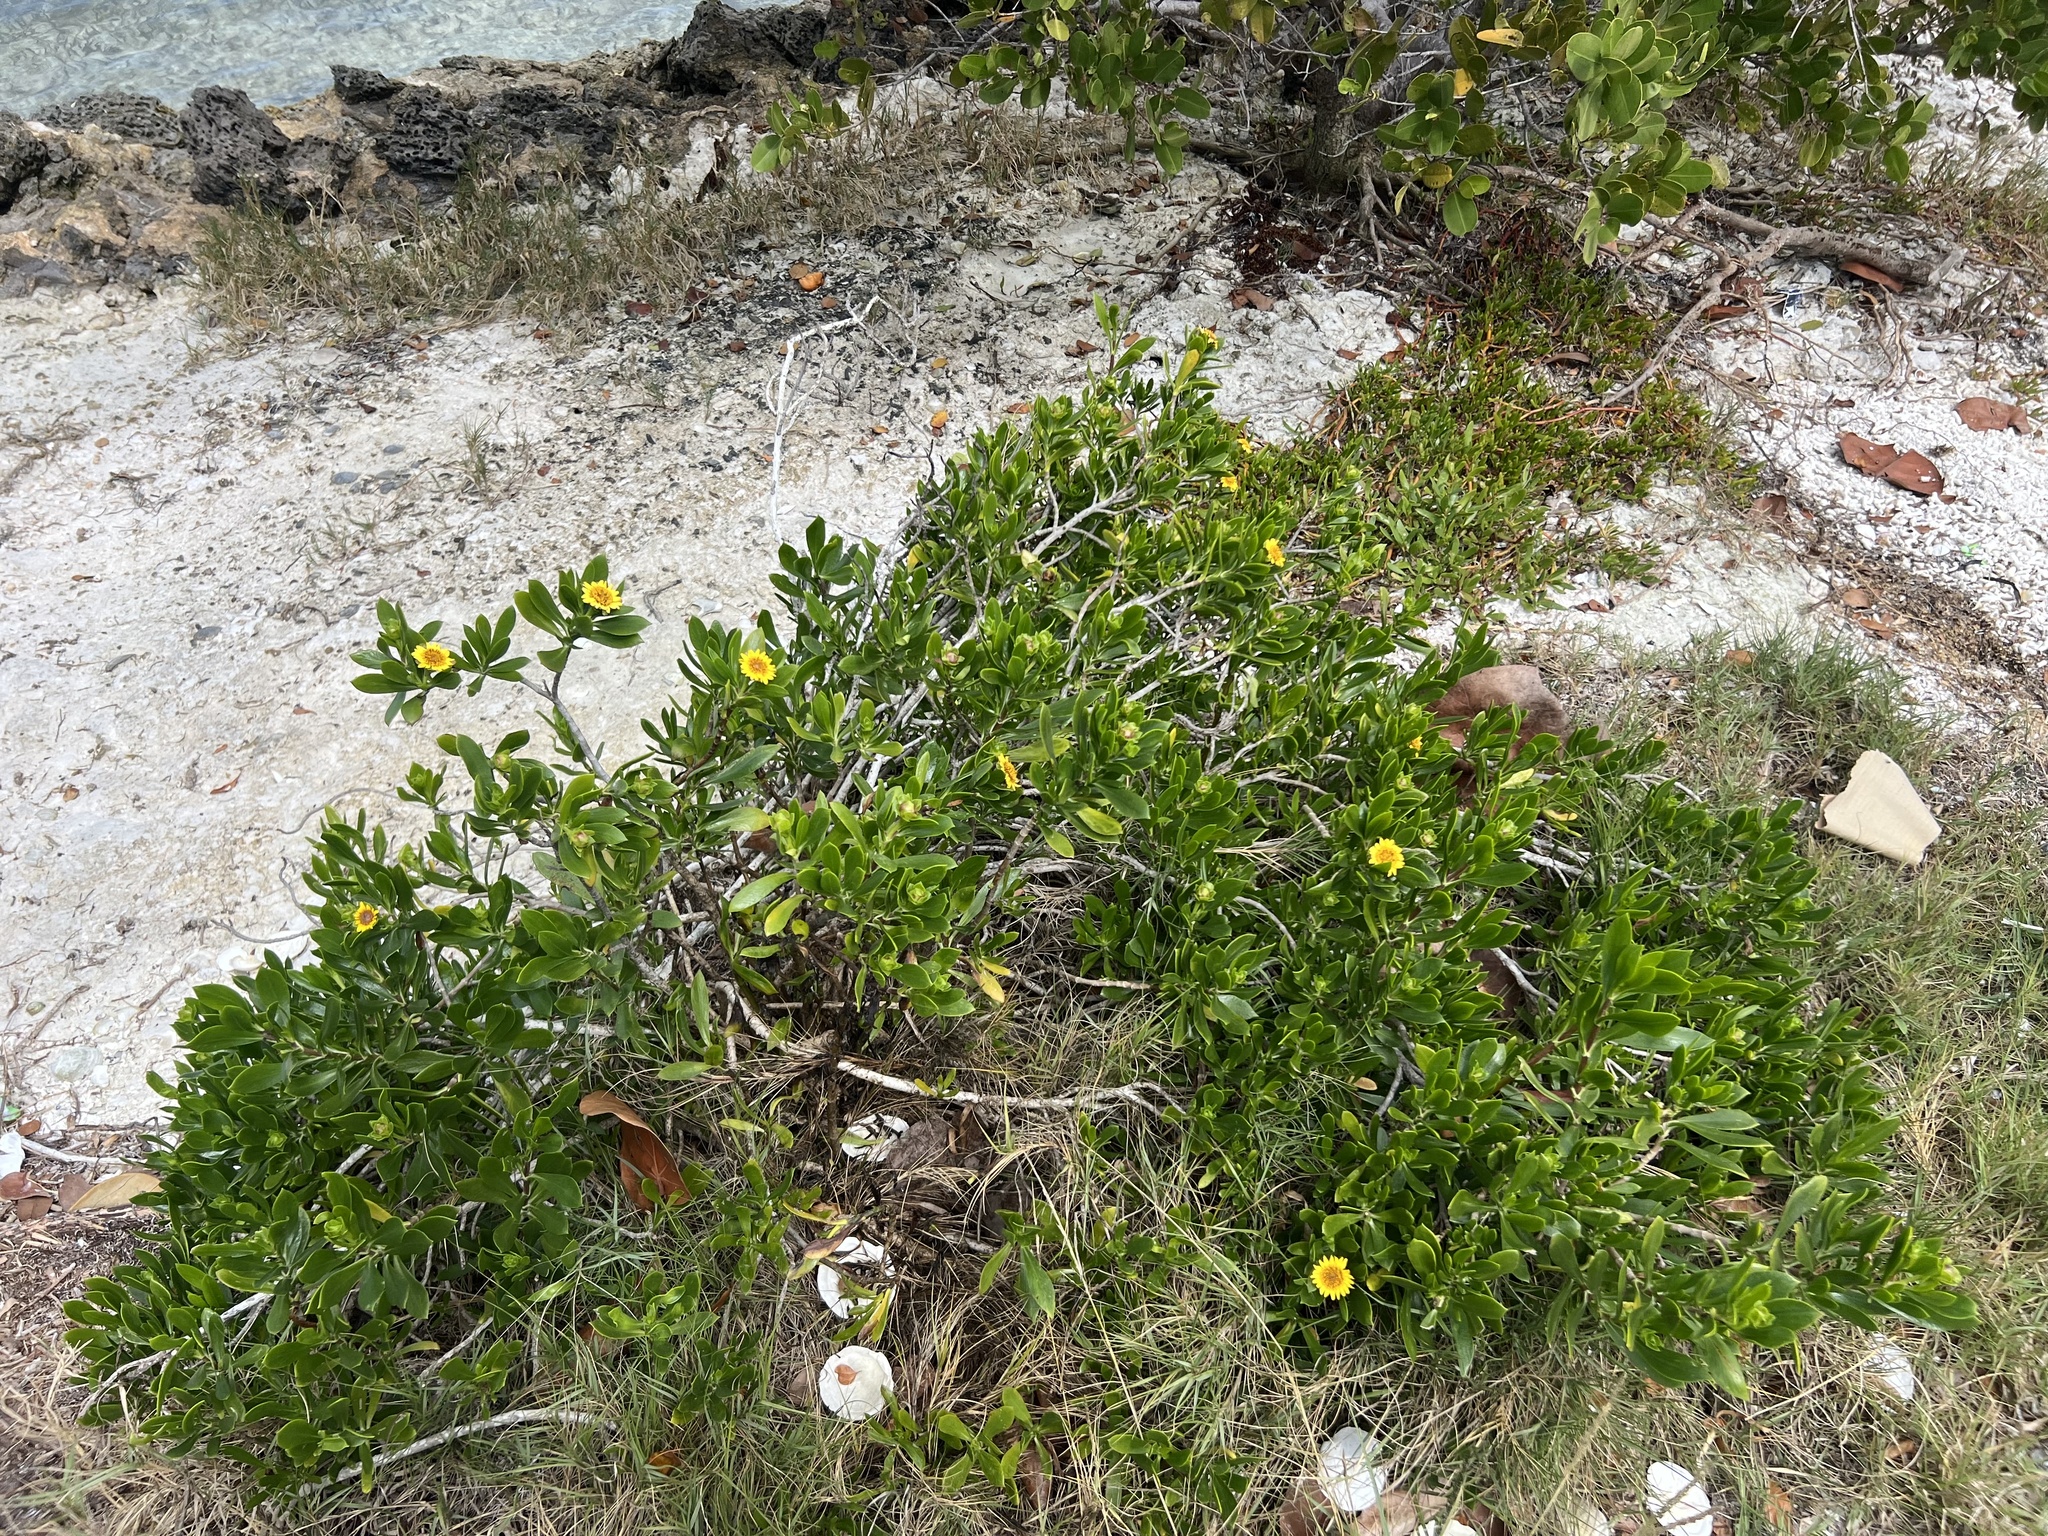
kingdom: Plantae
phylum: Tracheophyta
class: Magnoliopsida
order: Asterales
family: Asteraceae
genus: Borrichia
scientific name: Borrichia arborescens
